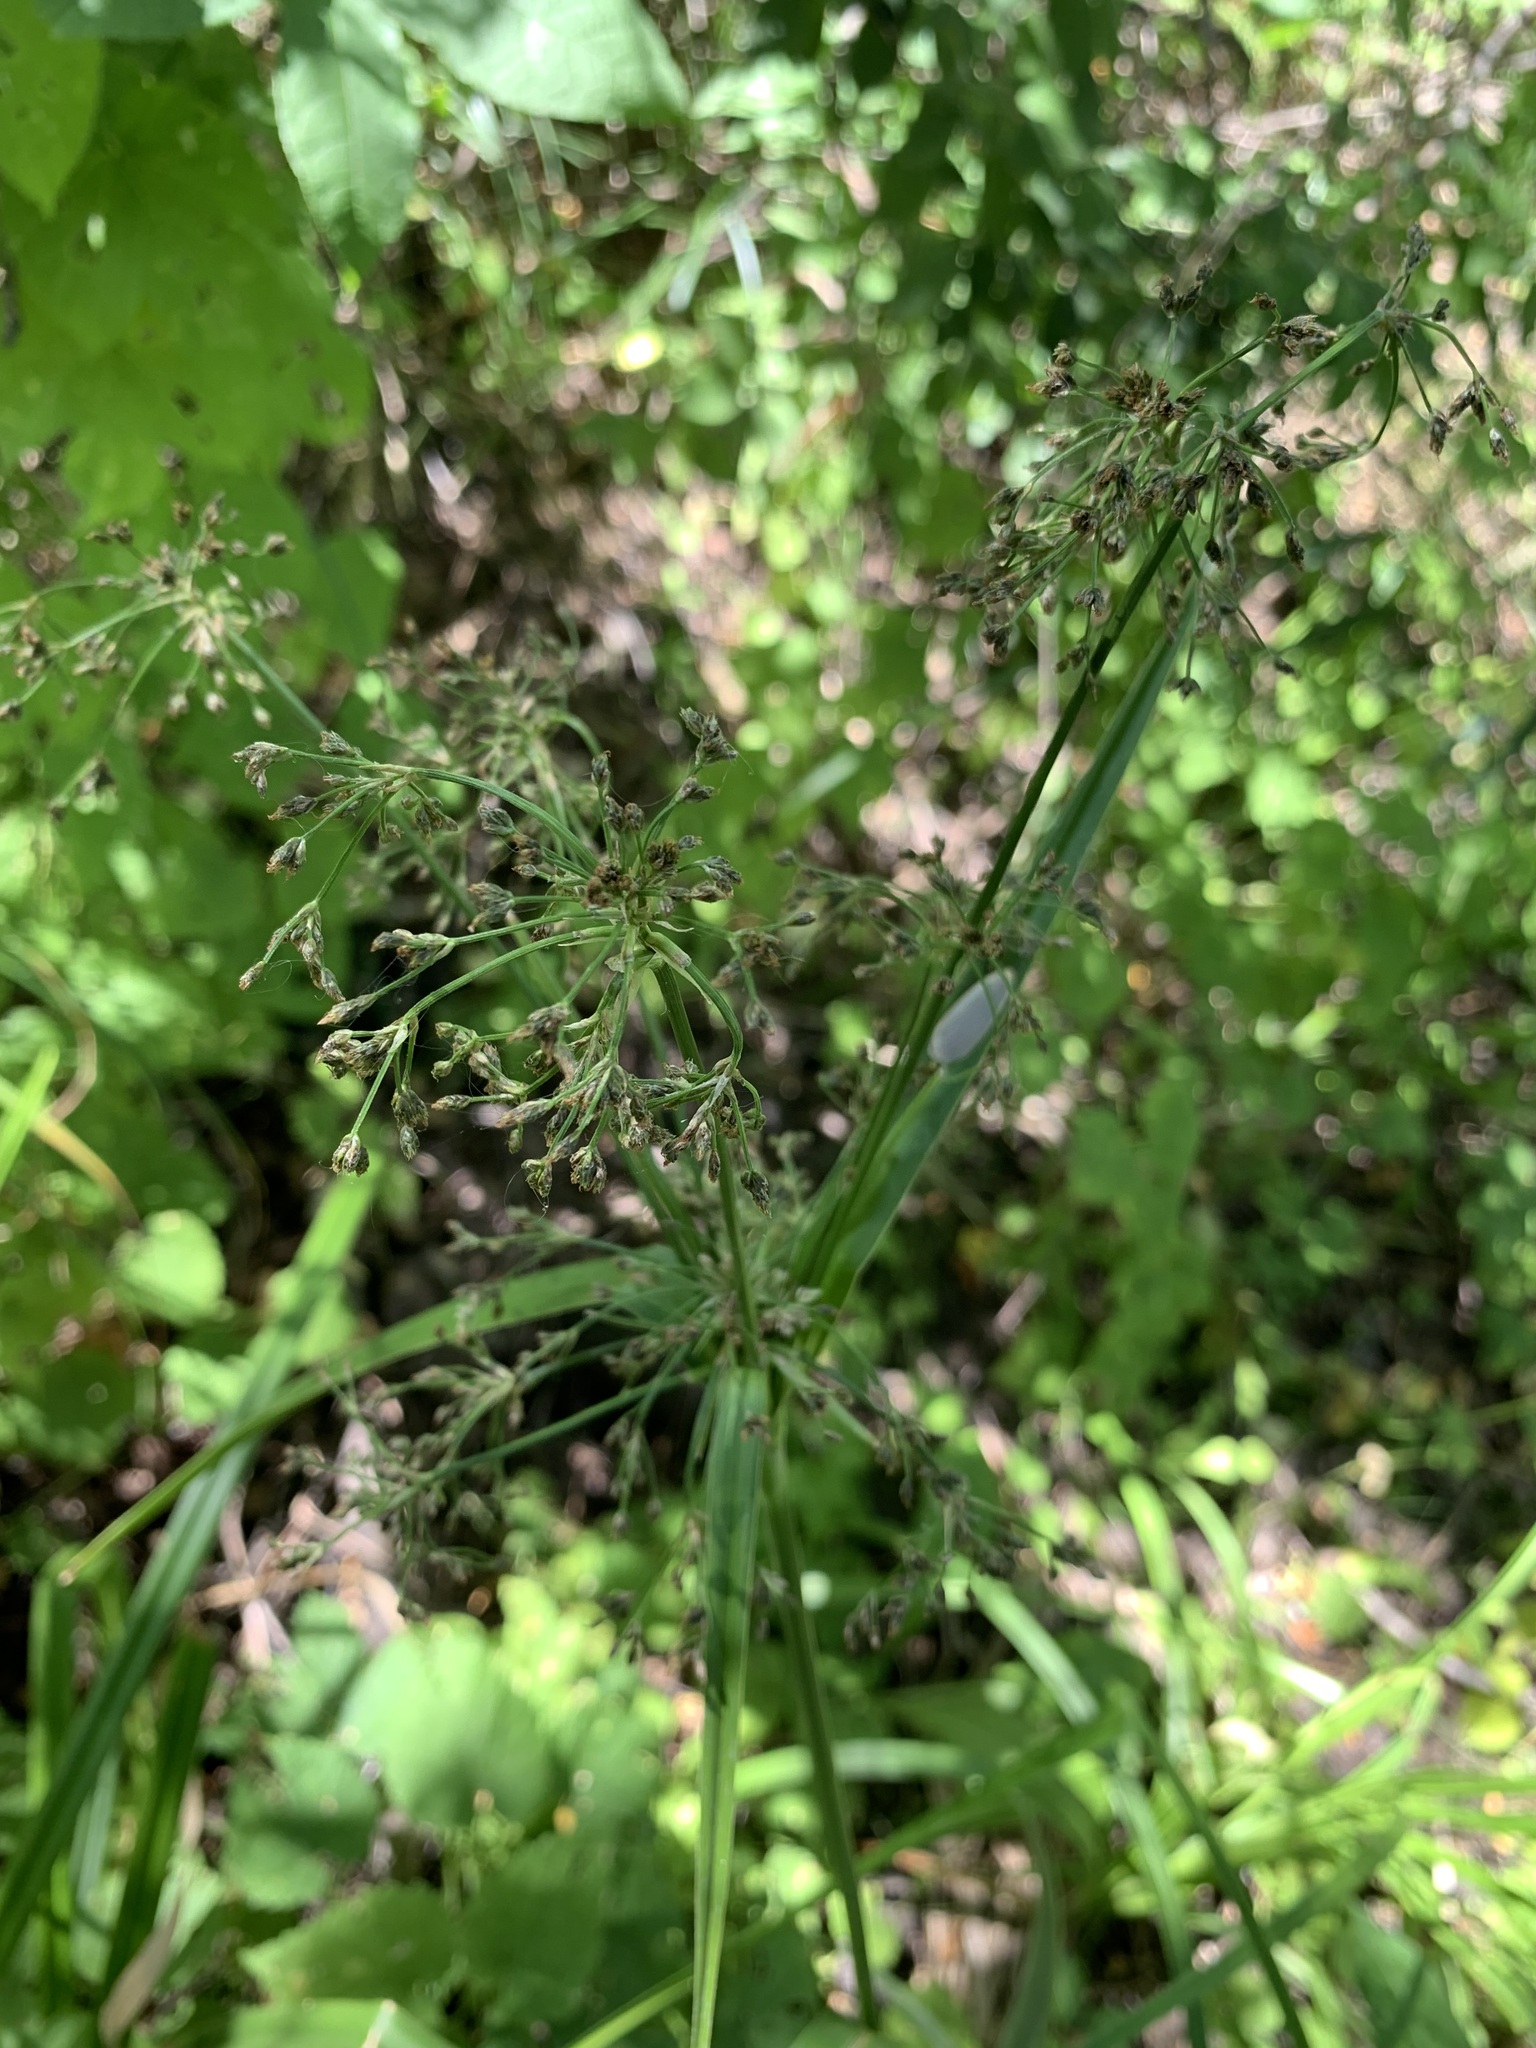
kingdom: Plantae
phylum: Tracheophyta
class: Liliopsida
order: Poales
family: Cyperaceae
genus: Scirpus
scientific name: Scirpus sylvaticus
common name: Wood club-rush
